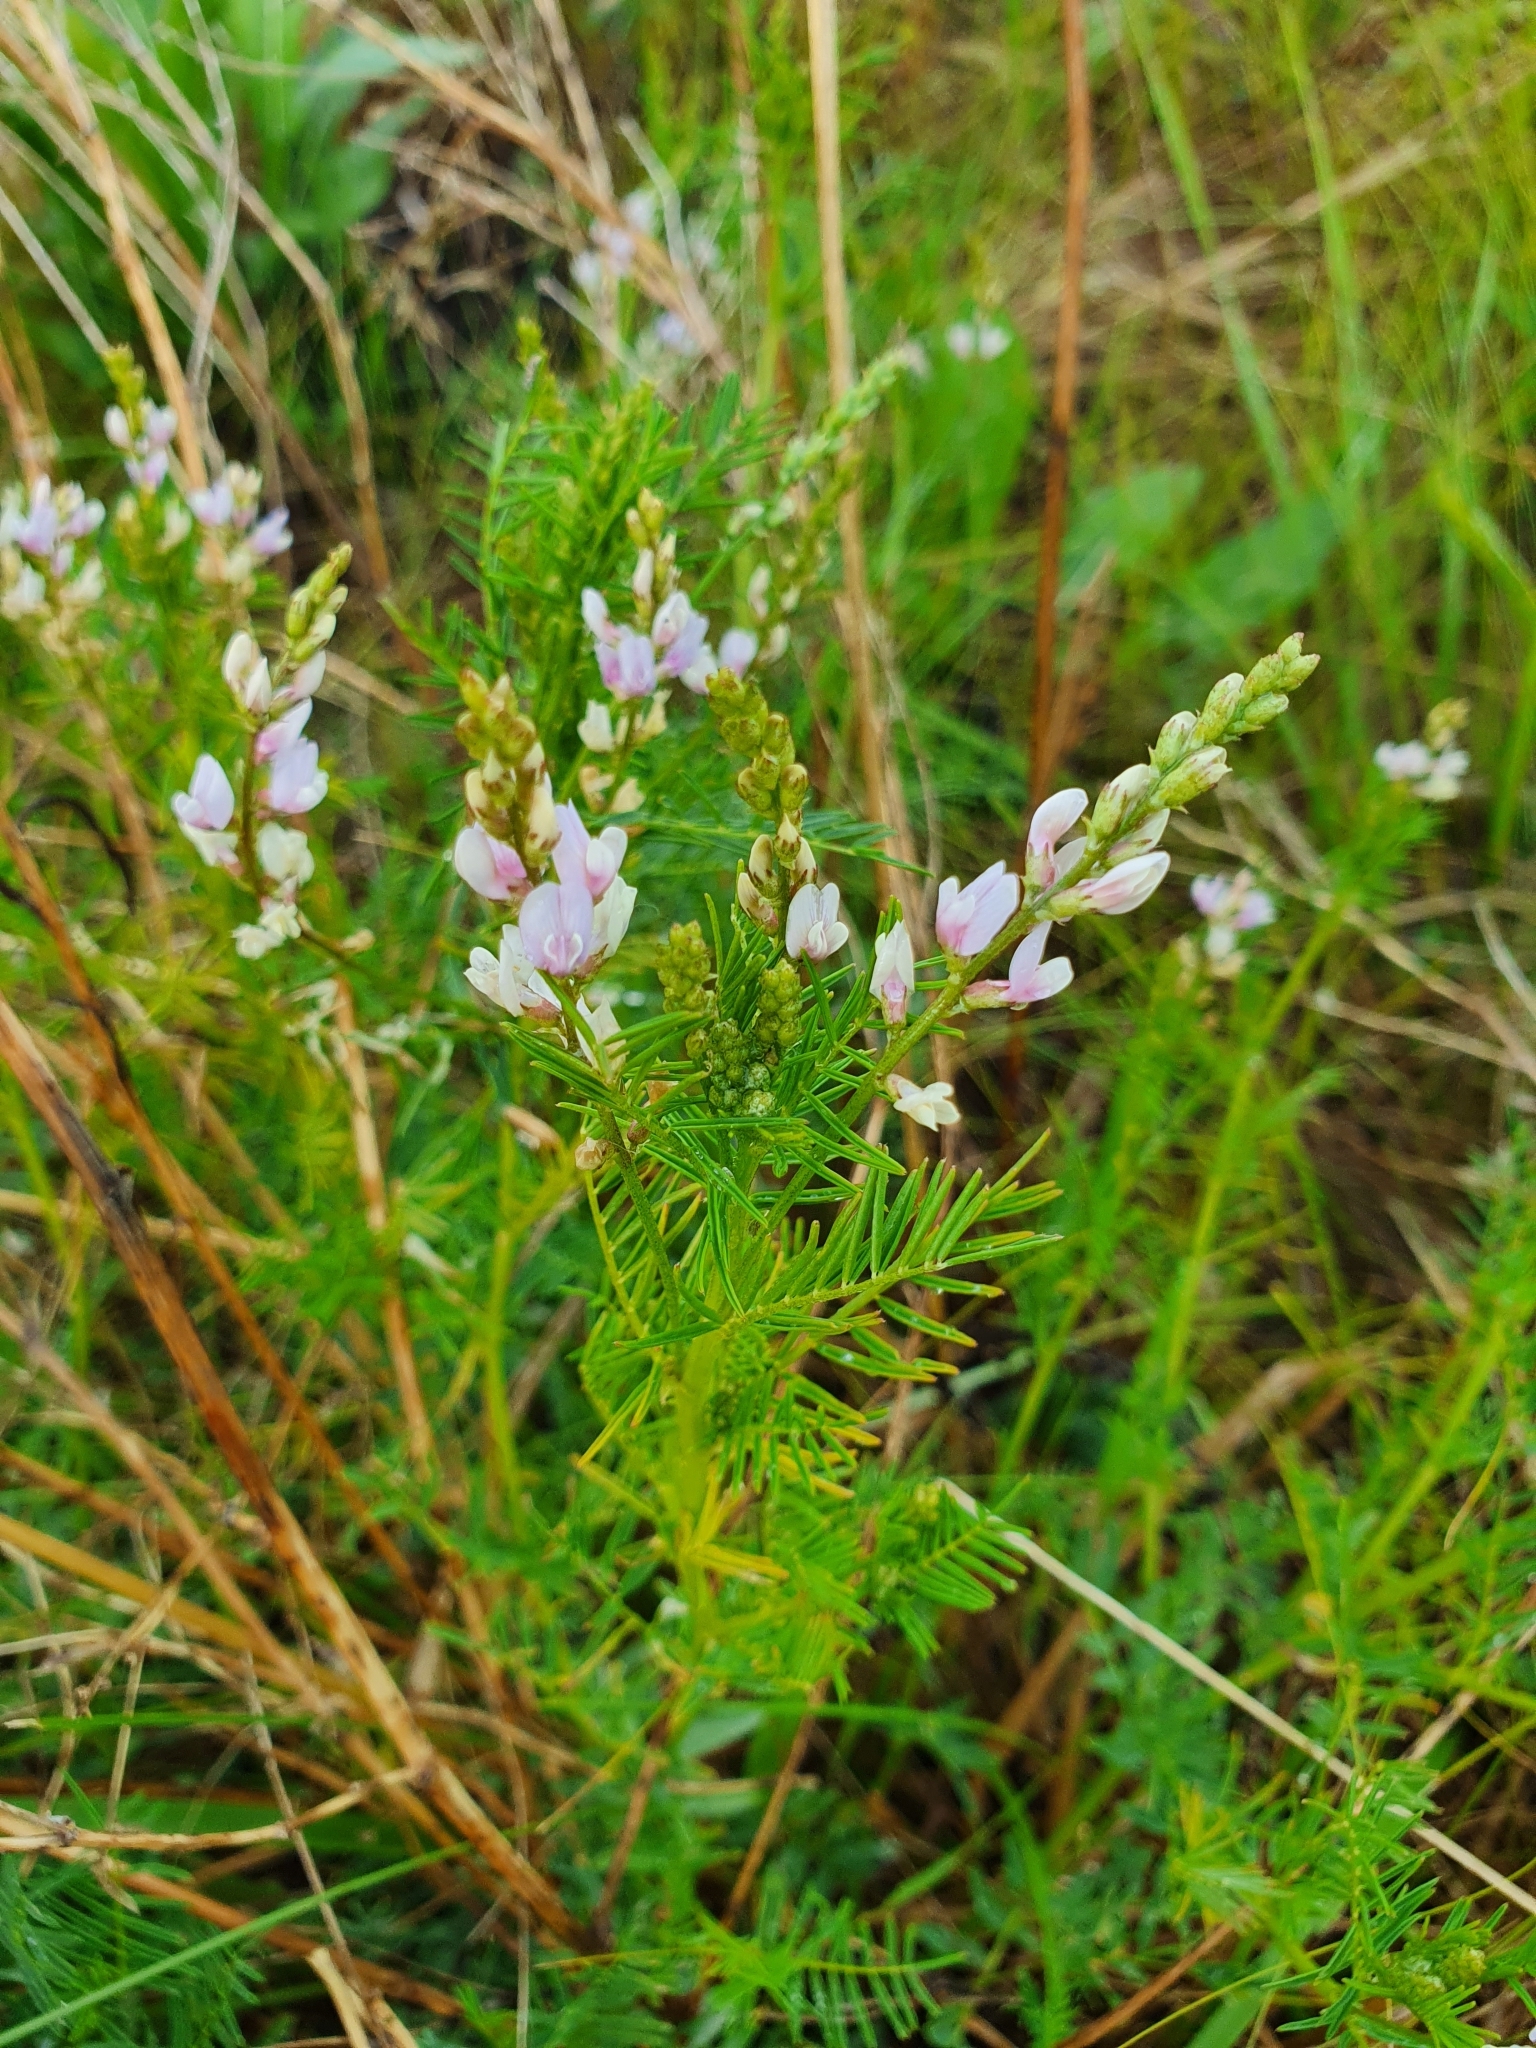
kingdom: Plantae
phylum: Tracheophyta
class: Magnoliopsida
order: Fabales
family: Fabaceae
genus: Astragalus
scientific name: Astragalus sulcatus
